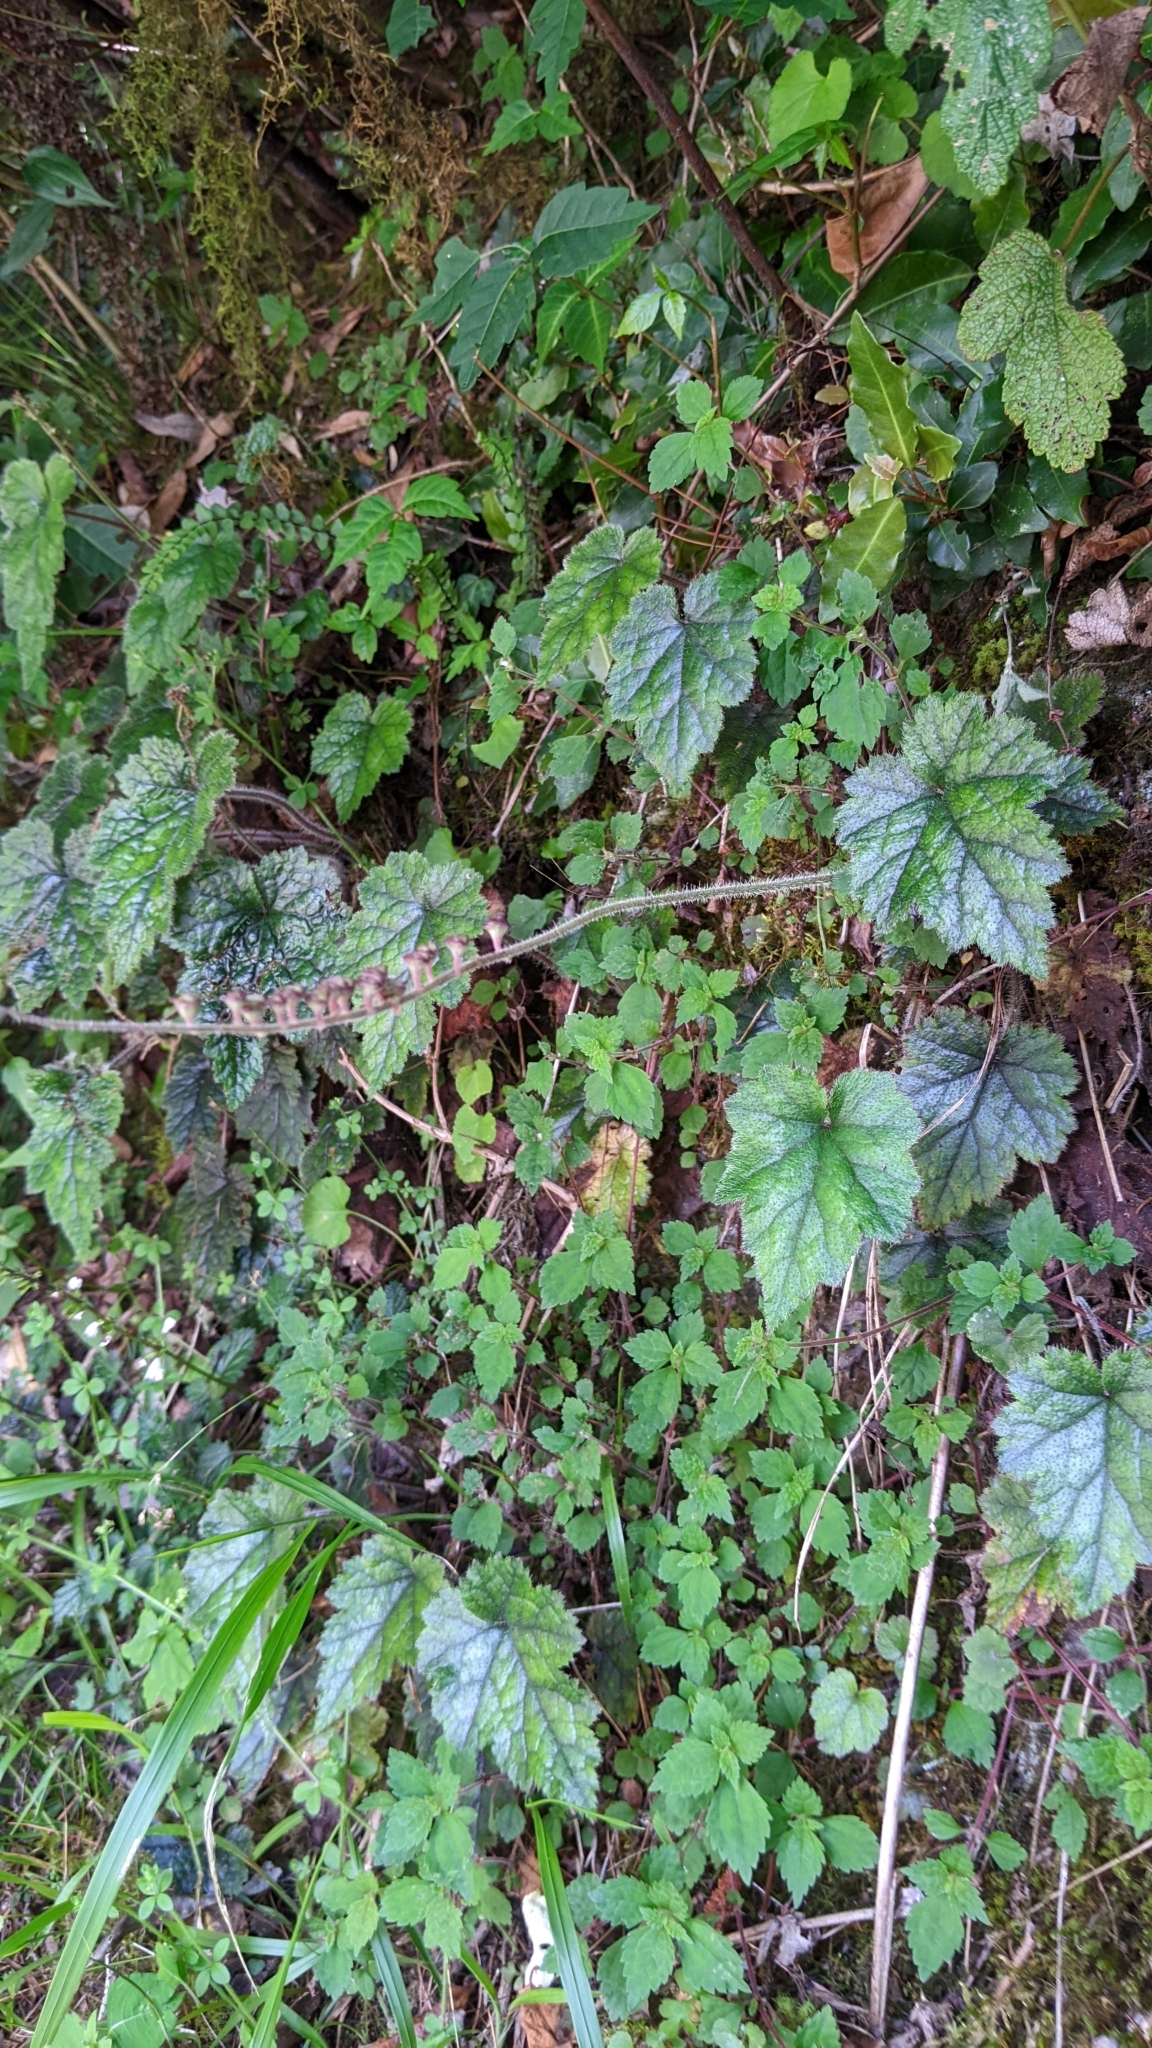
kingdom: Plantae
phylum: Tracheophyta
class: Magnoliopsida
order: Saxifragales
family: Saxifragaceae
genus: Asimitellaria
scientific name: Asimitellaria formosana
